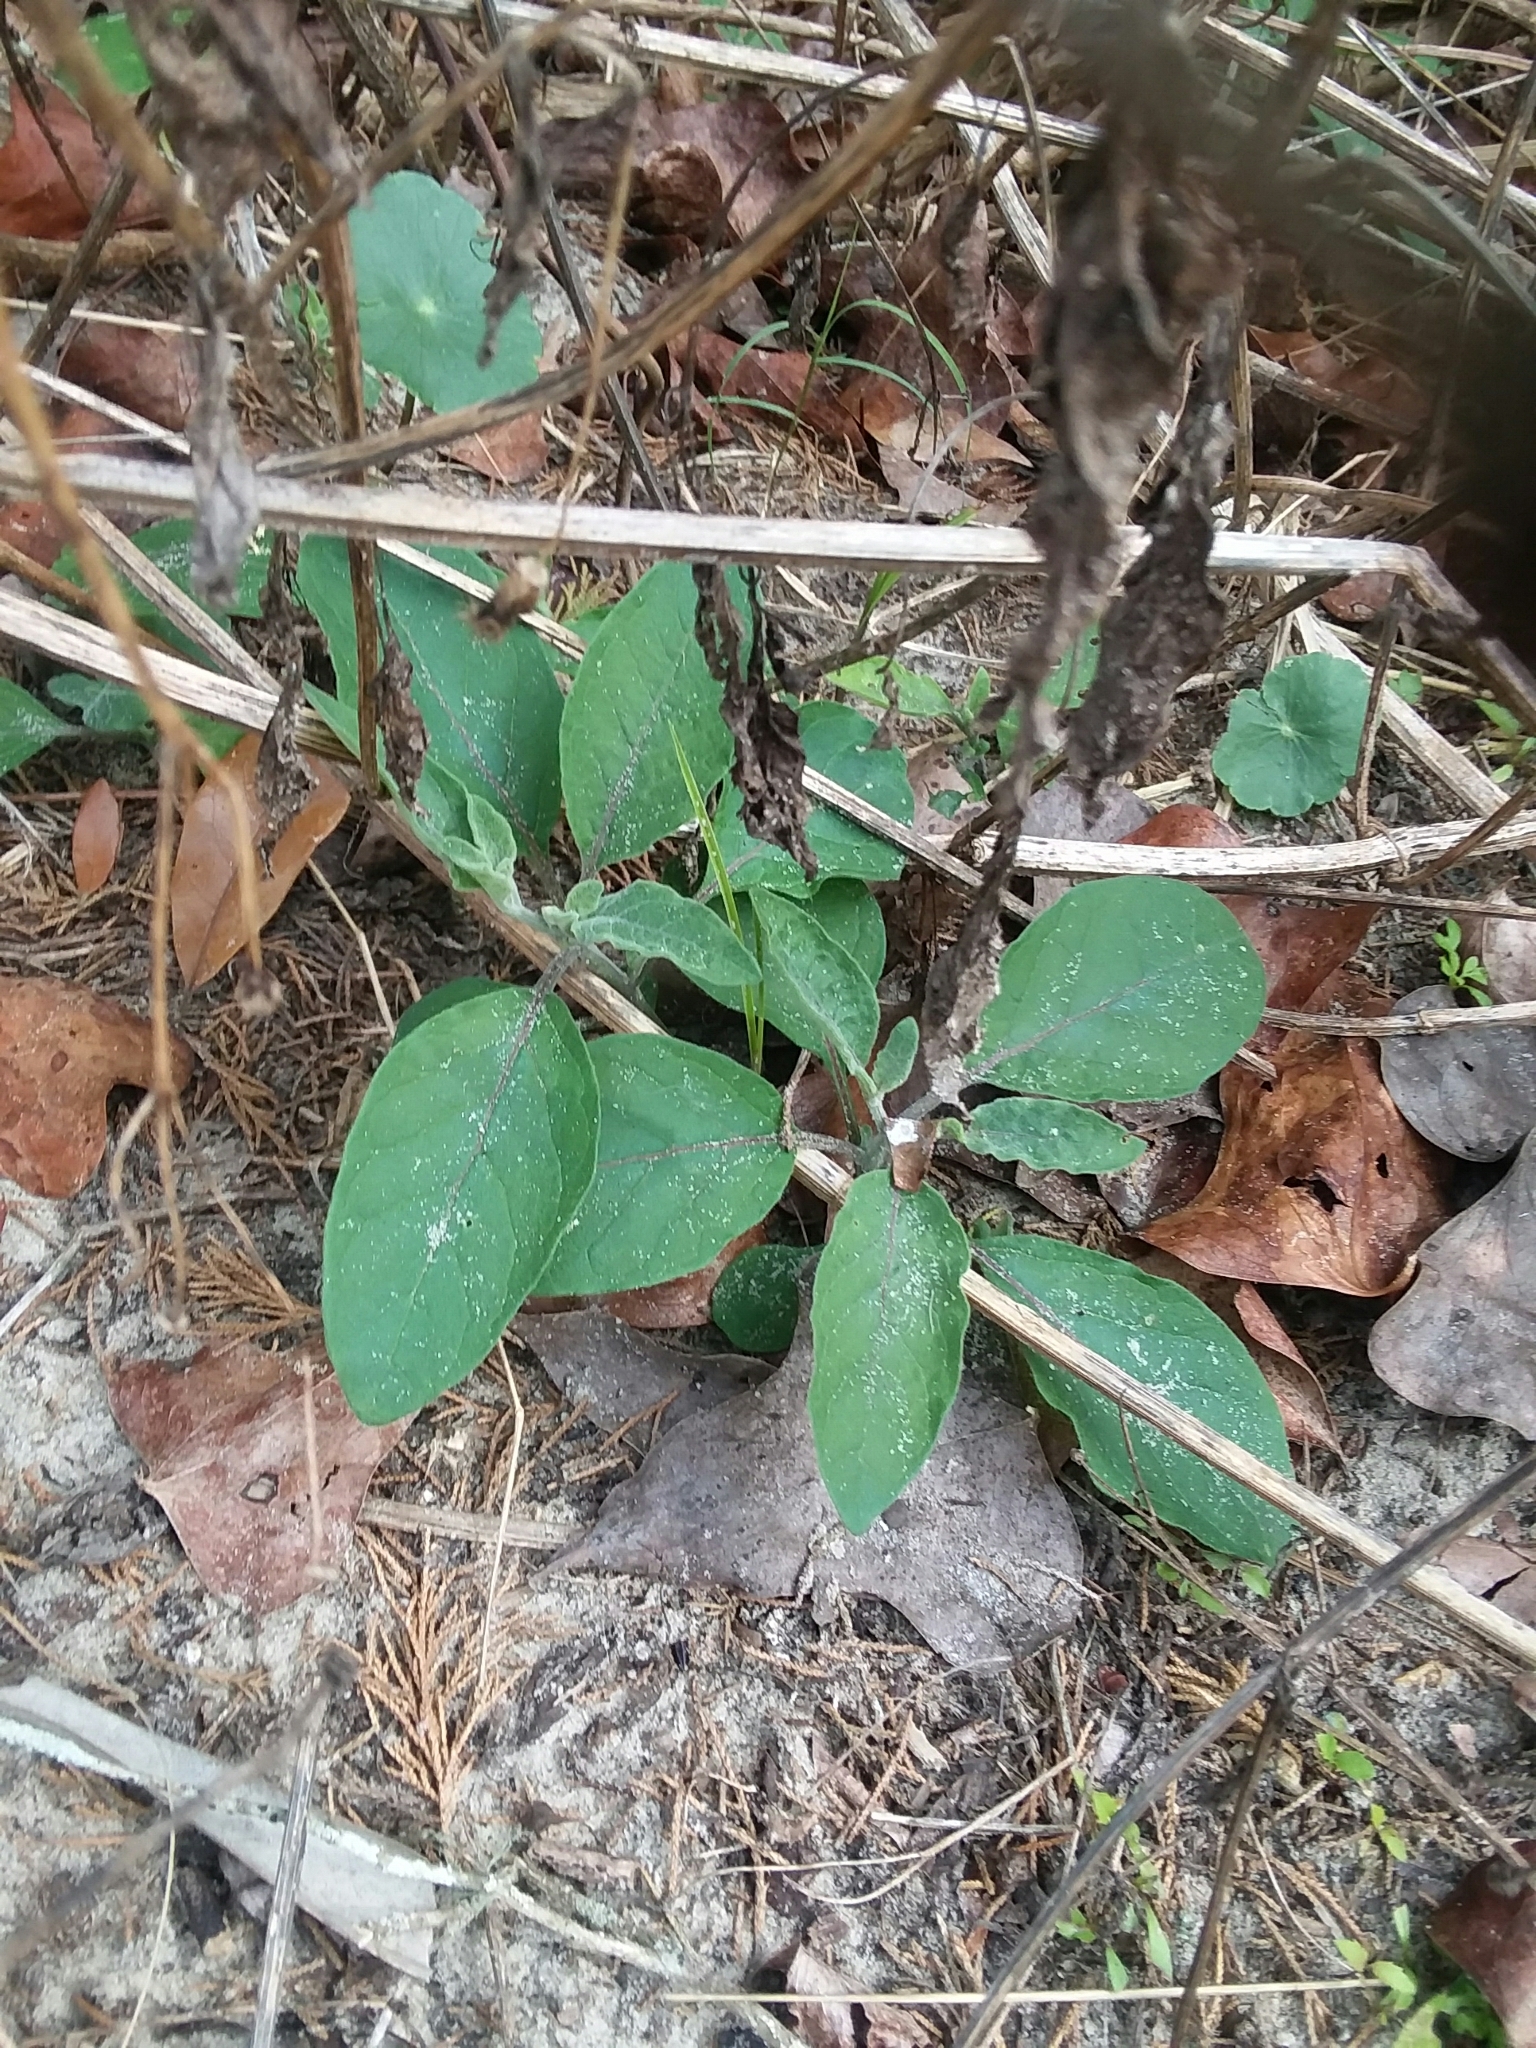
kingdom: Plantae
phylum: Tracheophyta
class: Magnoliopsida
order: Solanales
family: Solanaceae
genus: Physalis
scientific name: Physalis walteri
